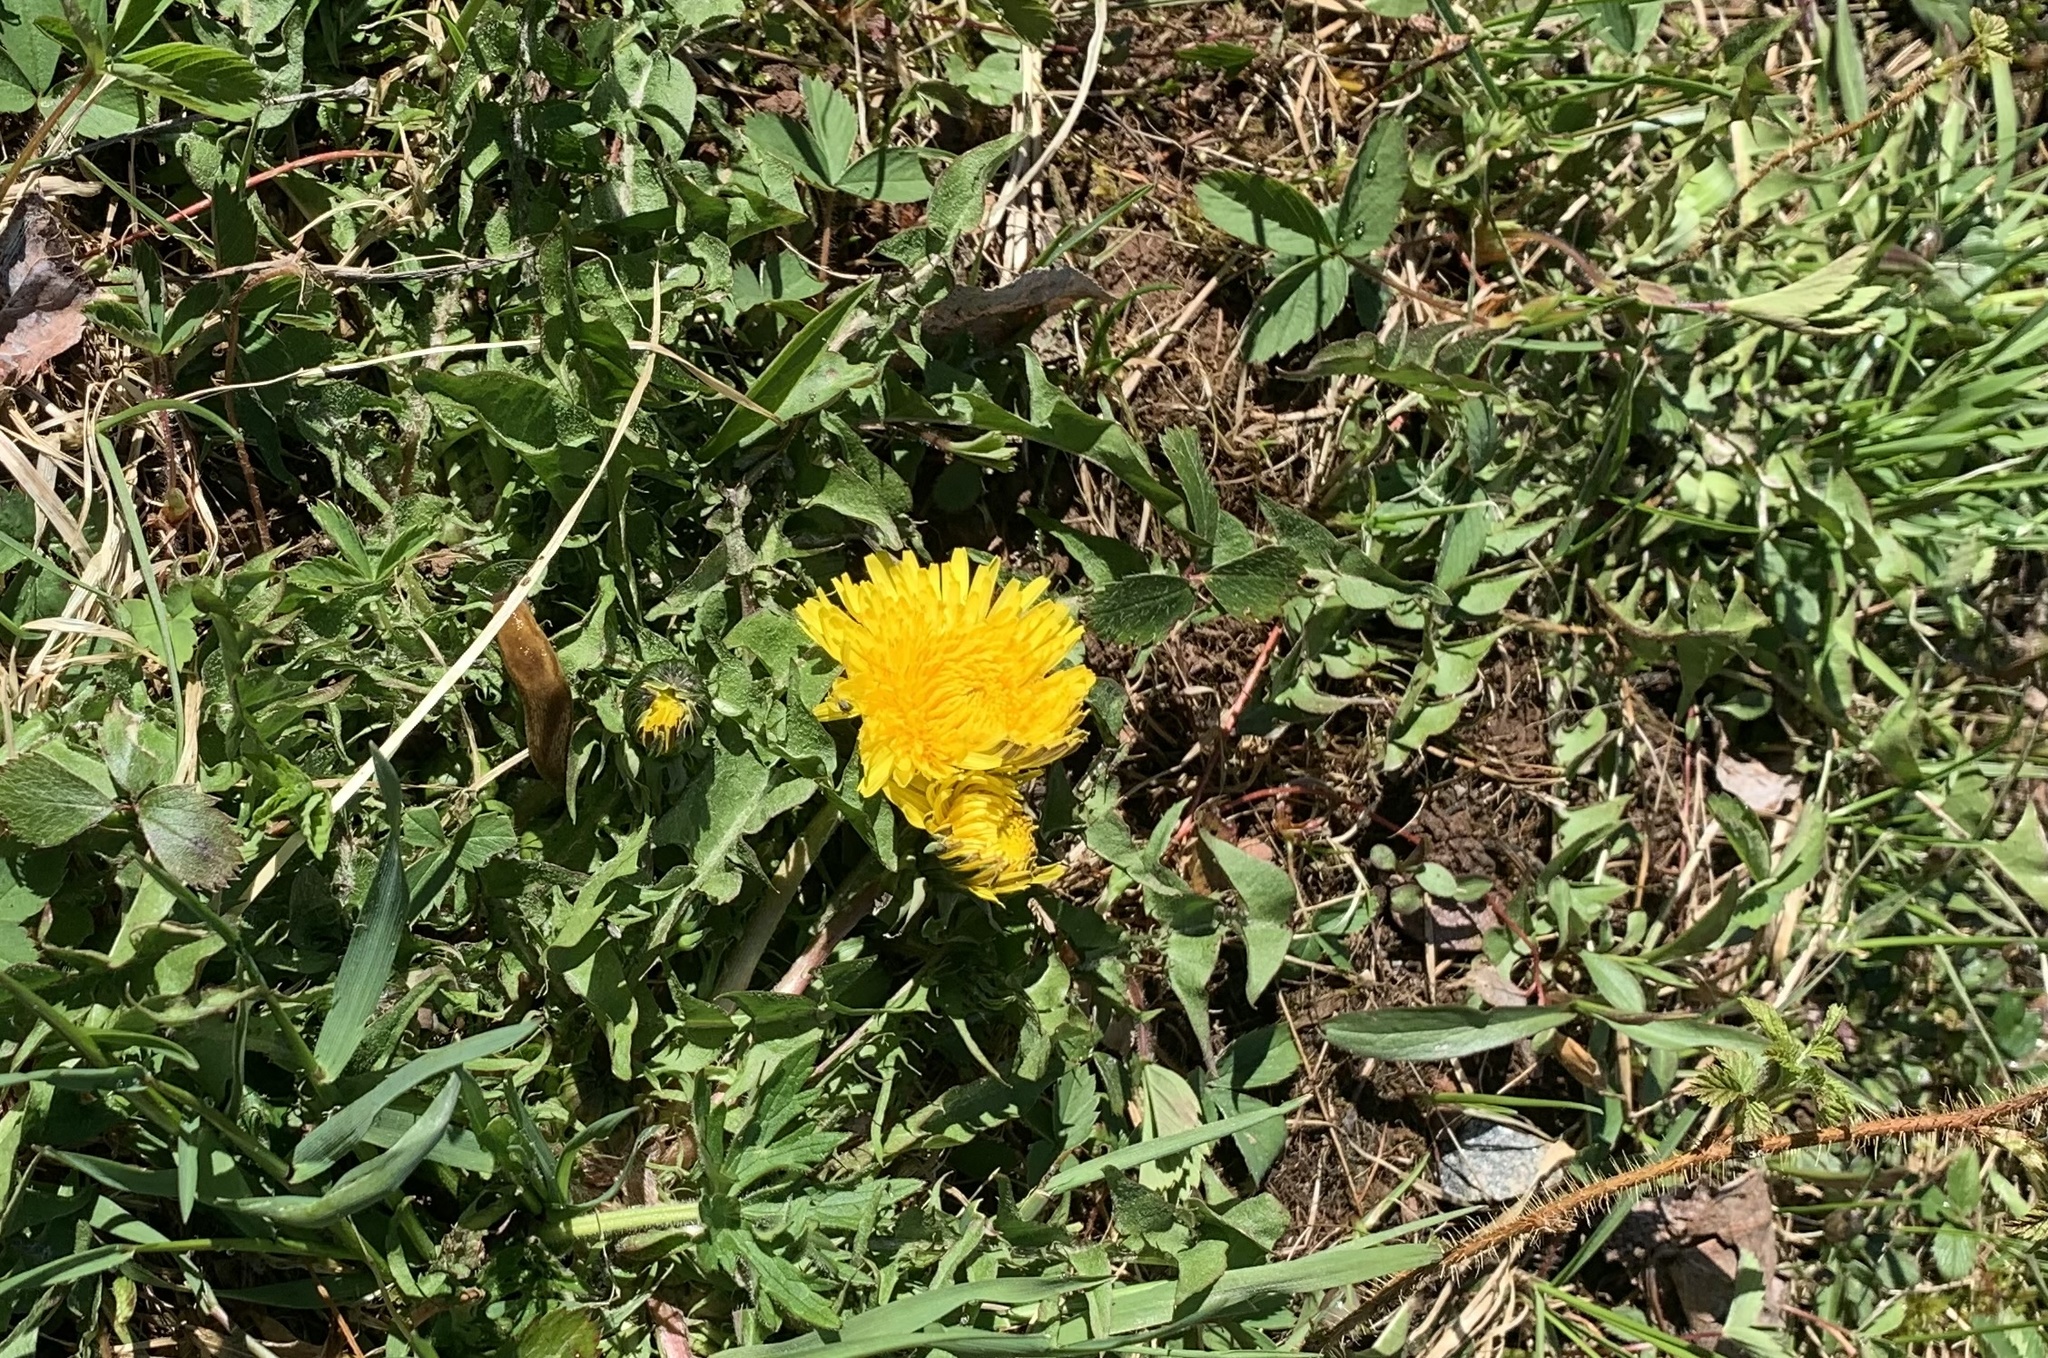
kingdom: Plantae
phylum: Tracheophyta
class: Magnoliopsida
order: Asterales
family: Asteraceae
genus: Taraxacum
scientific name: Taraxacum officinale
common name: Common dandelion
